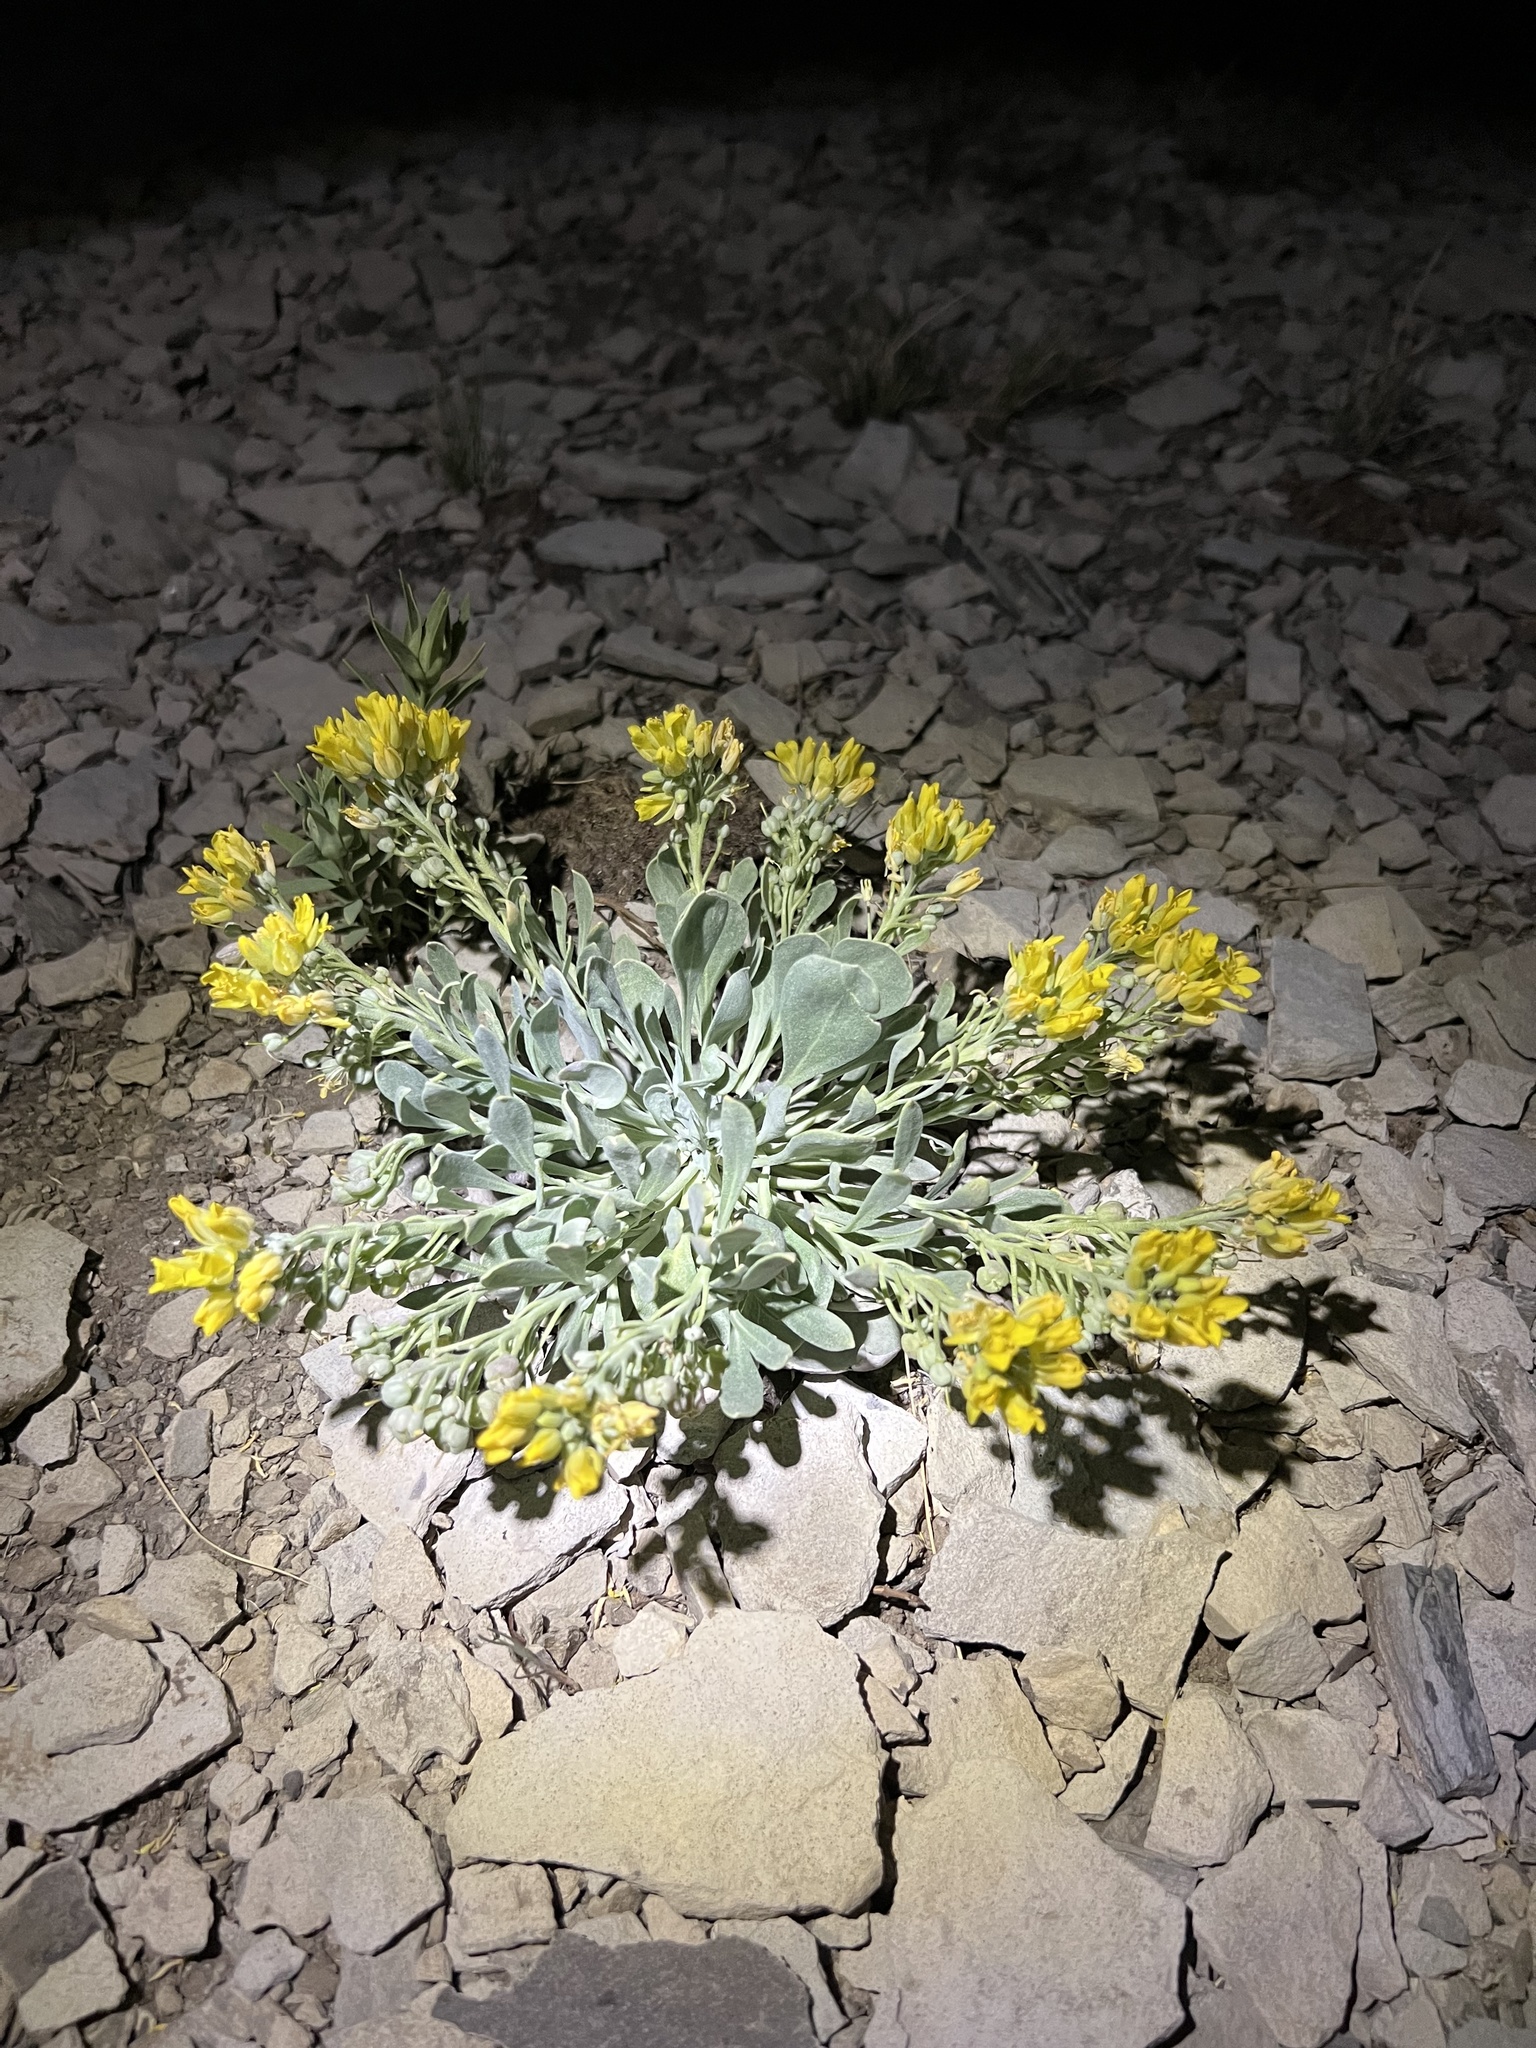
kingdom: Plantae
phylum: Tracheophyta
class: Magnoliopsida
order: Brassicales
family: Brassicaceae
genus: Physaria
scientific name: Physaria bellii
